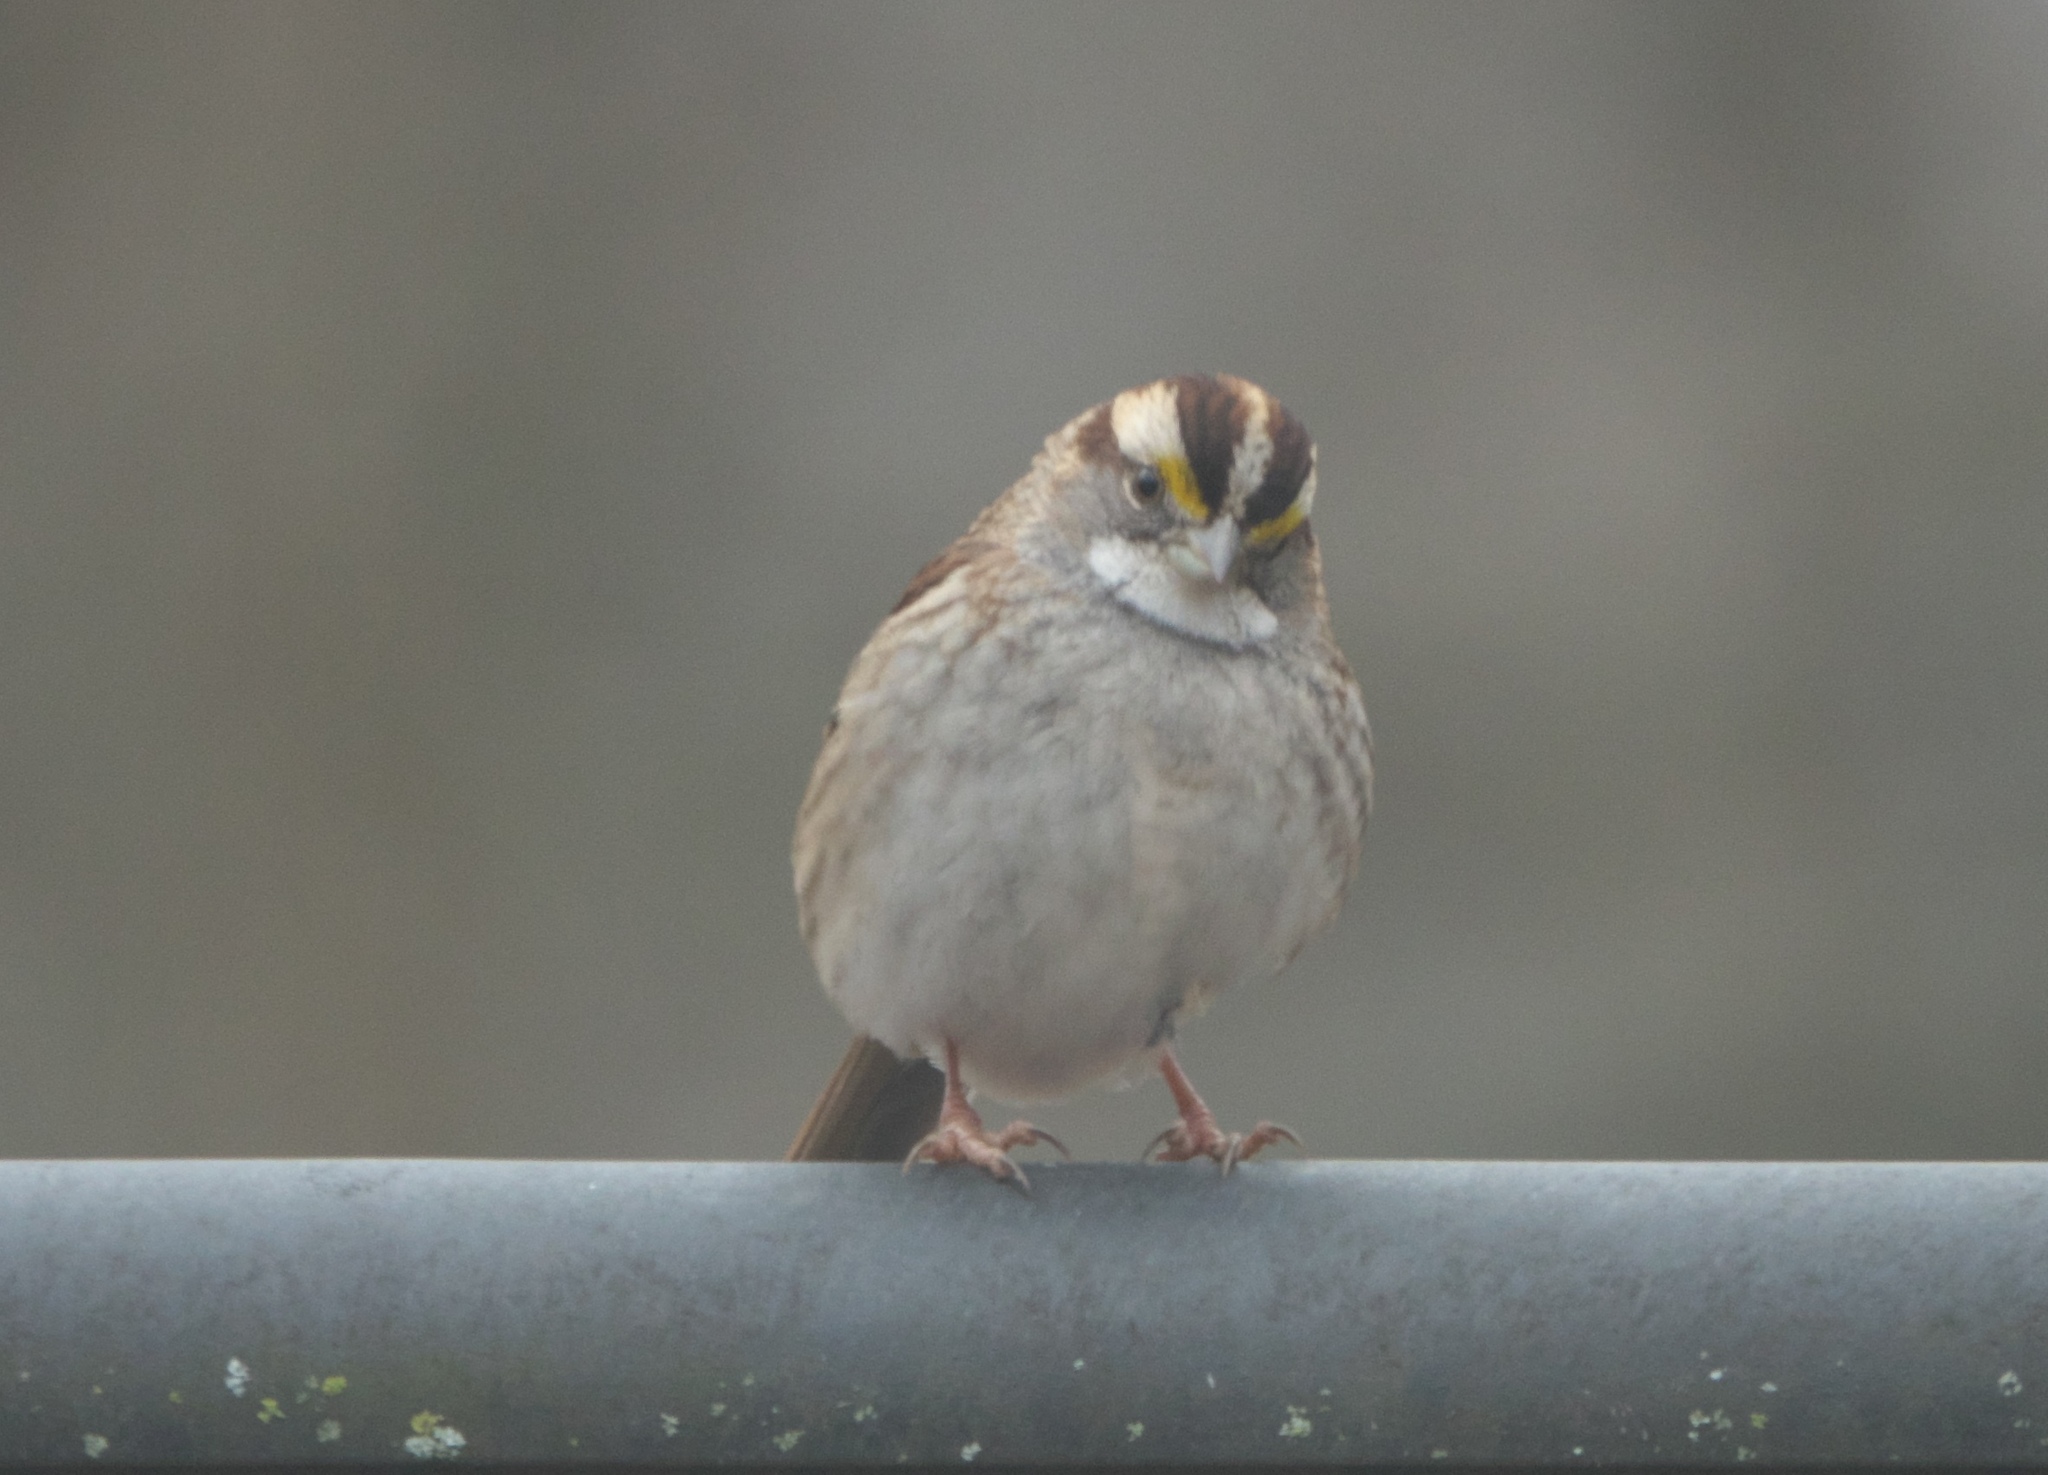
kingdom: Animalia
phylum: Chordata
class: Aves
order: Passeriformes
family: Passerellidae
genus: Zonotrichia
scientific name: Zonotrichia albicollis
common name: White-throated sparrow
